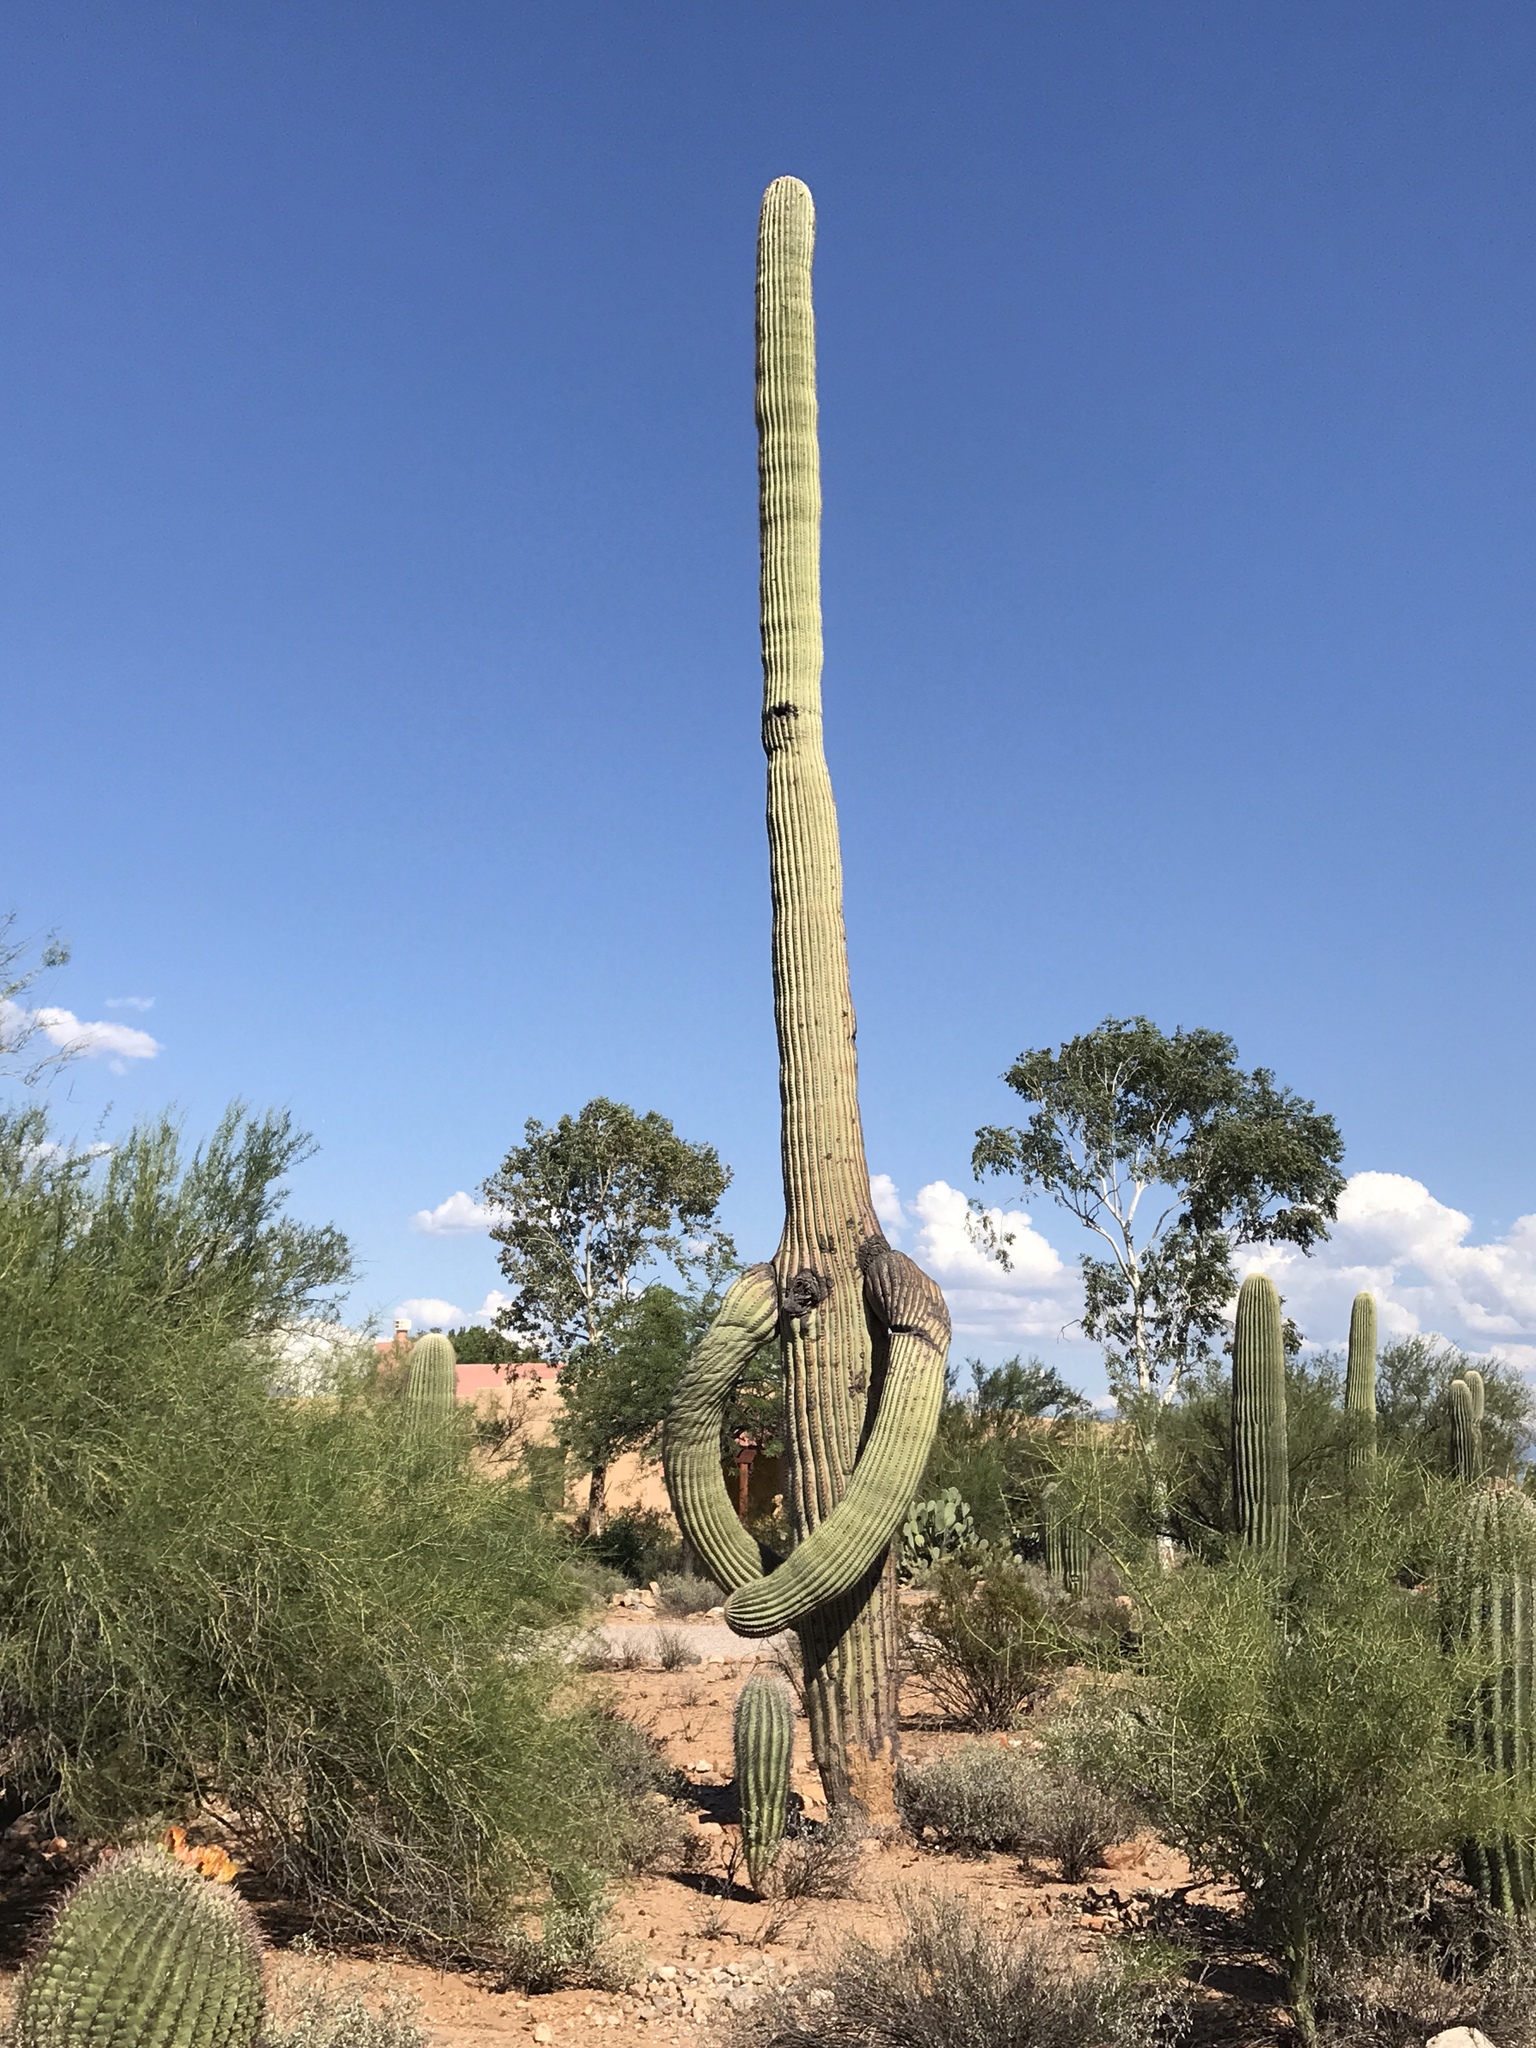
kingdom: Plantae
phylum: Tracheophyta
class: Magnoliopsida
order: Caryophyllales
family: Cactaceae
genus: Carnegiea
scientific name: Carnegiea gigantea
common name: Saguaro
